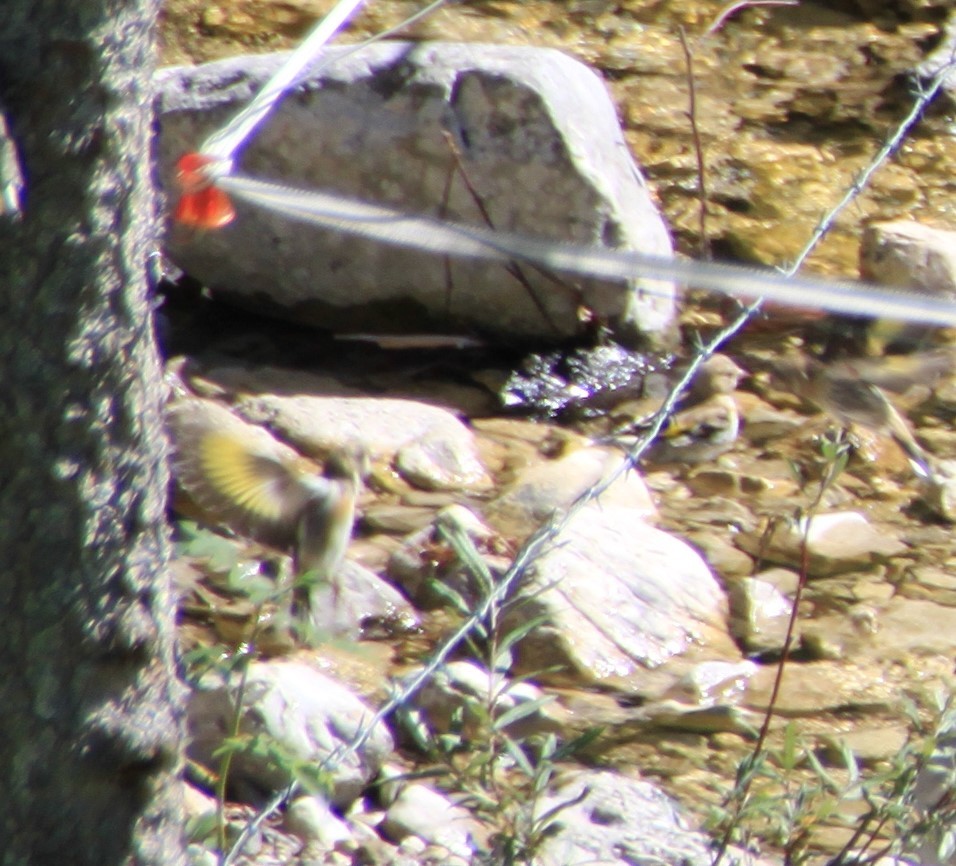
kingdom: Animalia
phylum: Chordata
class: Aves
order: Passeriformes
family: Fringillidae
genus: Carduelis
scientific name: Carduelis carduelis
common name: European goldfinch
